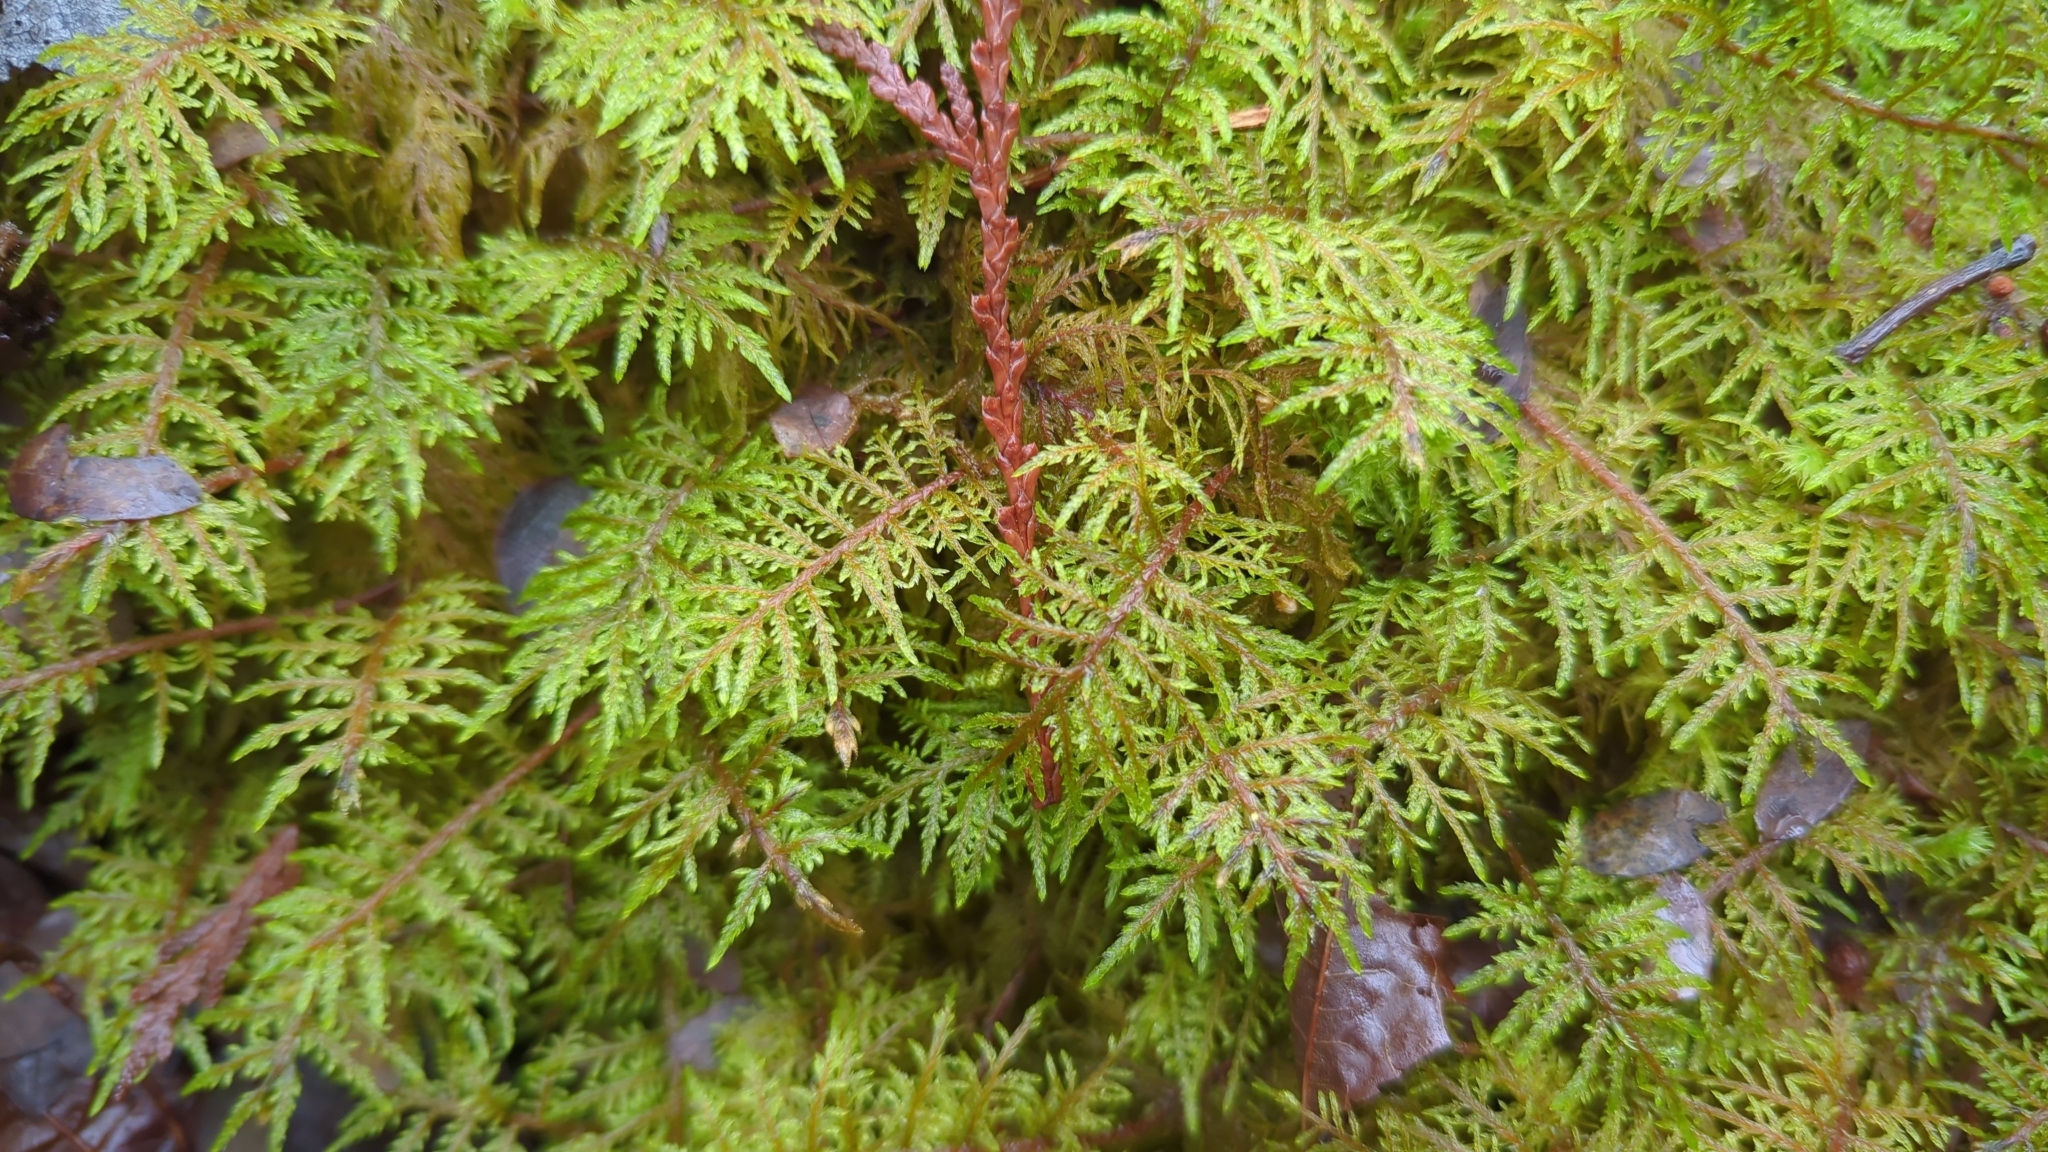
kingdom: Plantae
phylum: Bryophyta
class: Bryopsida
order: Hypnales
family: Hylocomiaceae
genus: Hylocomium
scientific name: Hylocomium splendens
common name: Stairstep moss
